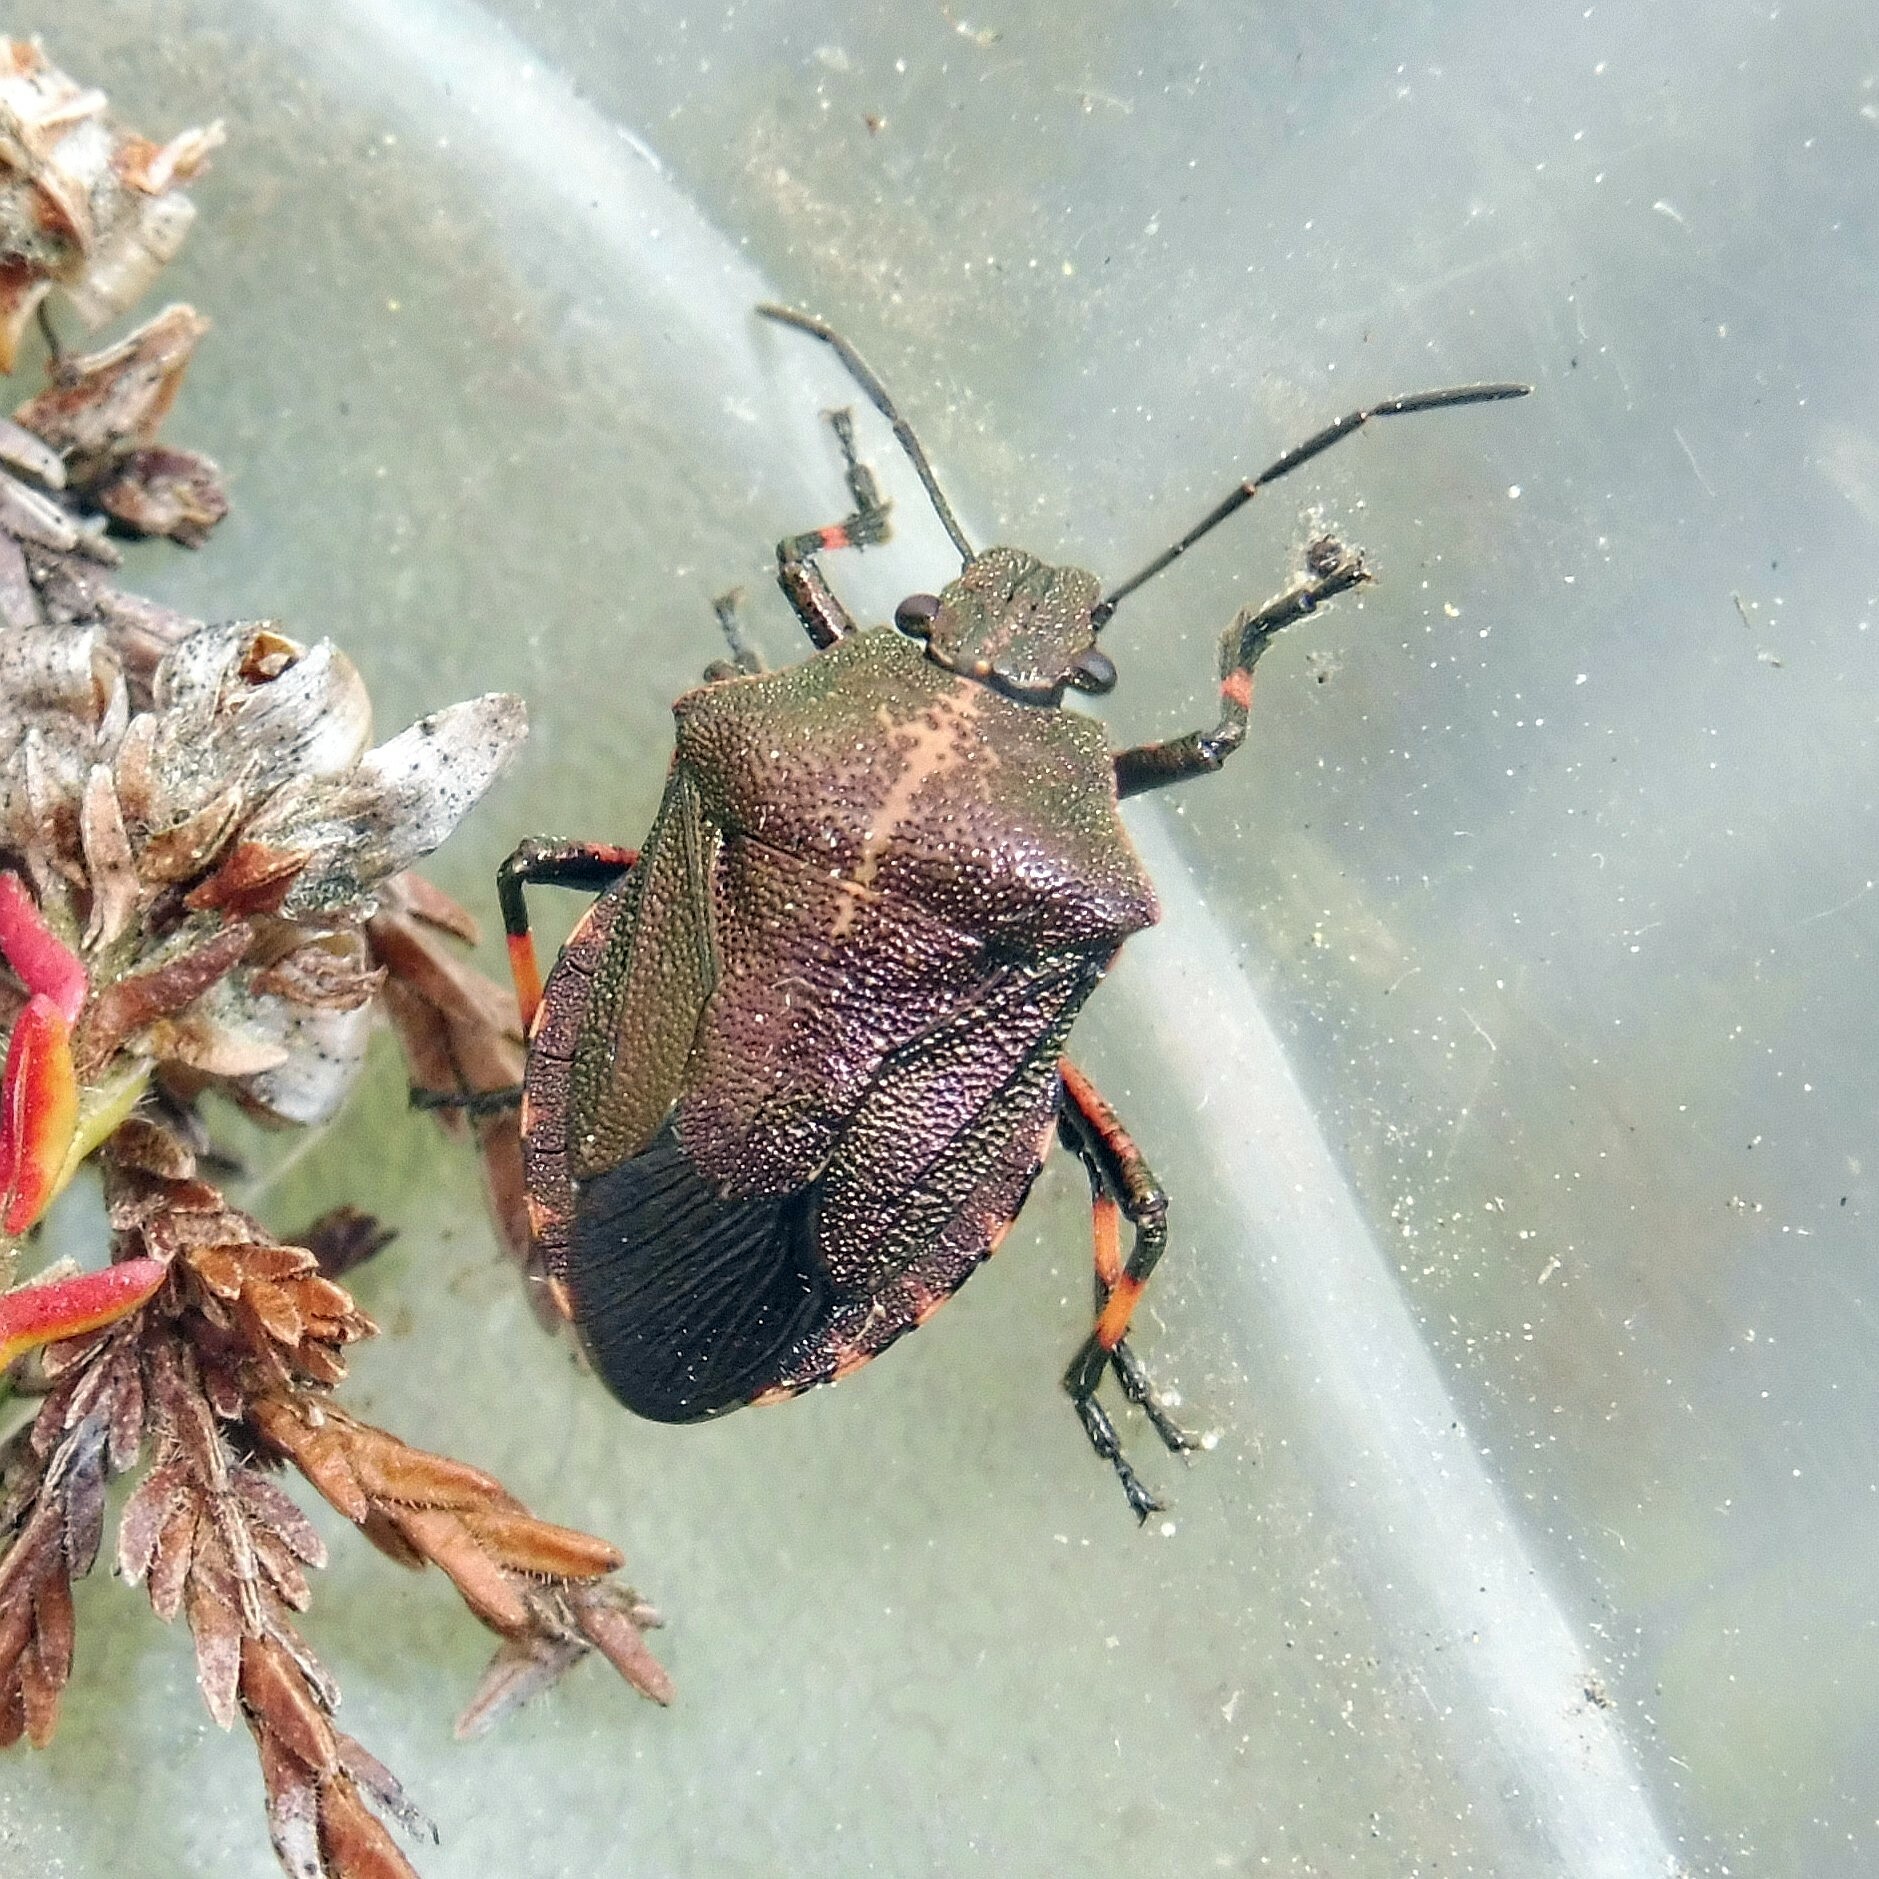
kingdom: Animalia
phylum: Arthropoda
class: Insecta
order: Hemiptera
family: Pentatomidae
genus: Rhacognathus
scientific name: Rhacognathus punctatus
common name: Heather bug
